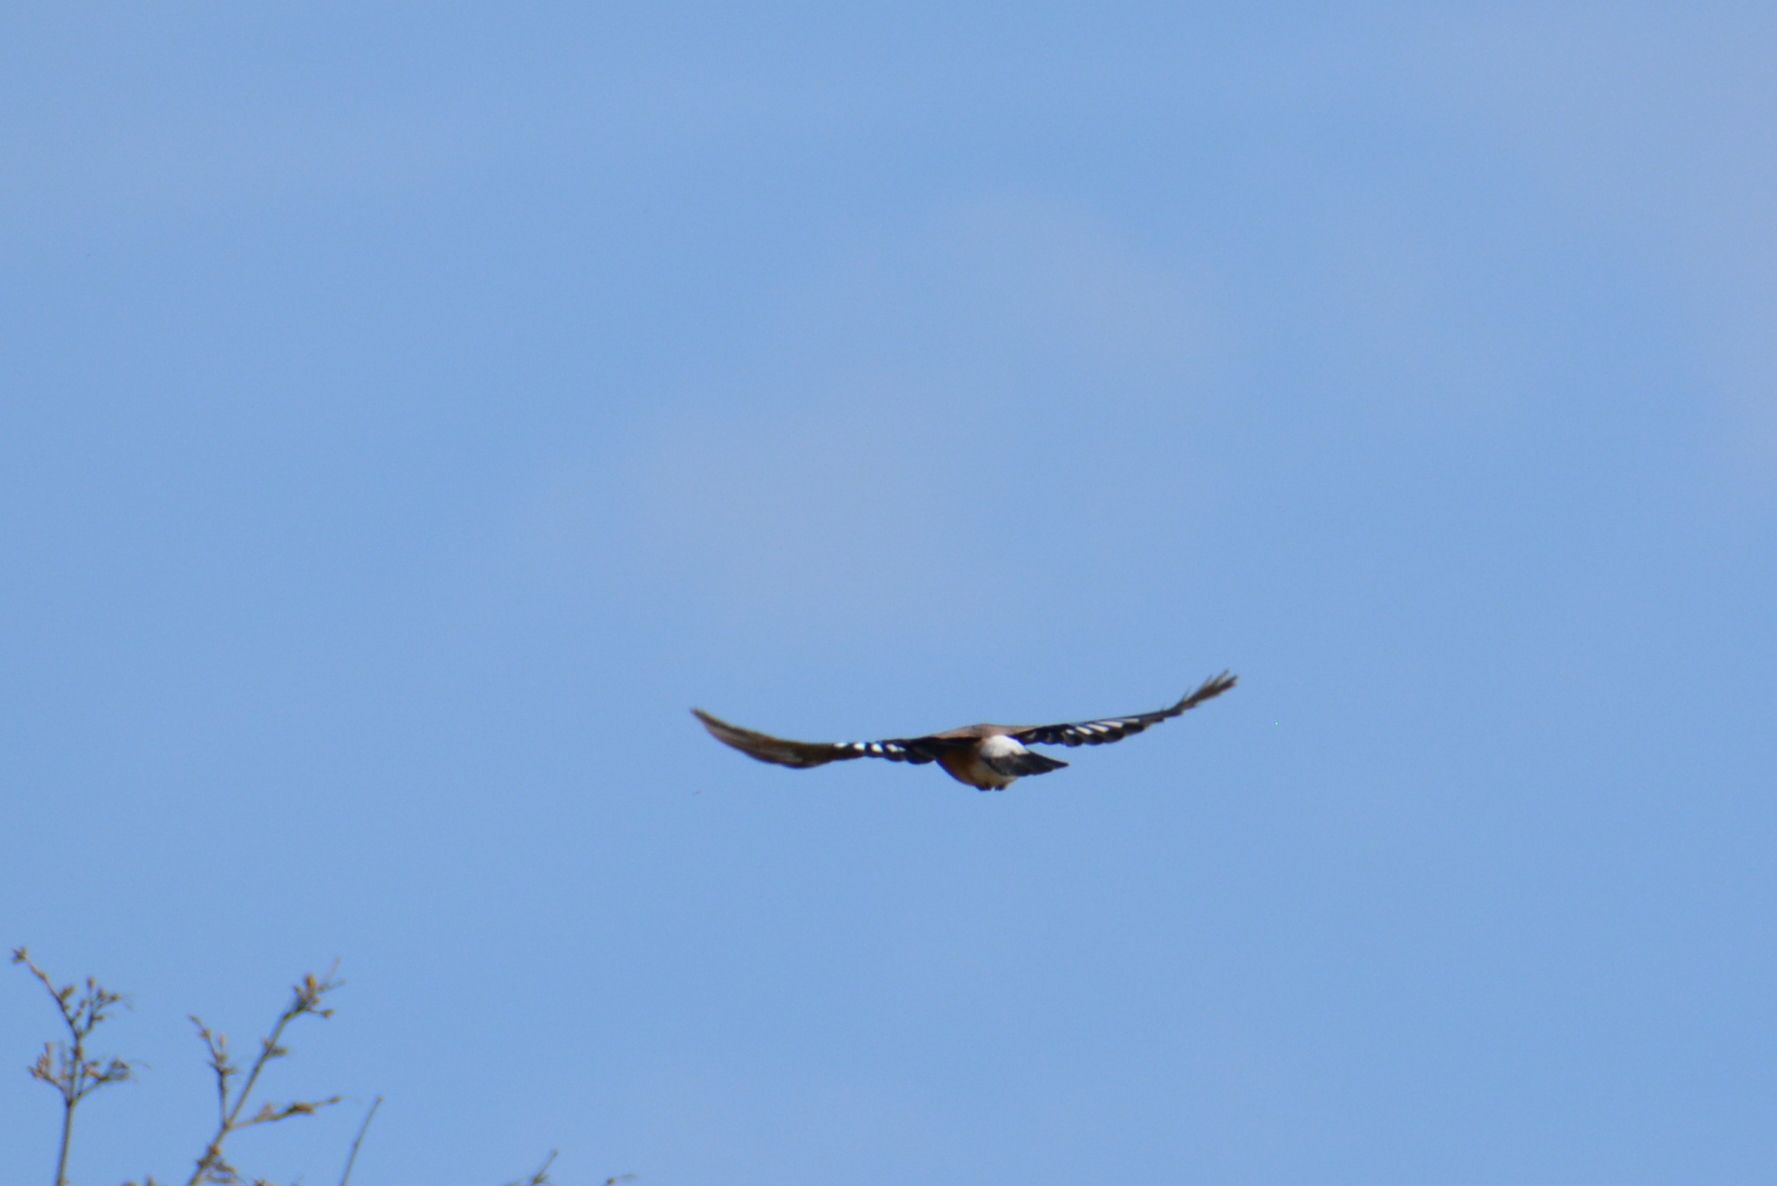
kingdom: Animalia
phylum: Chordata
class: Aves
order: Passeriformes
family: Corvidae
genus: Garrulus
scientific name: Garrulus glandarius
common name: Eurasian jay
